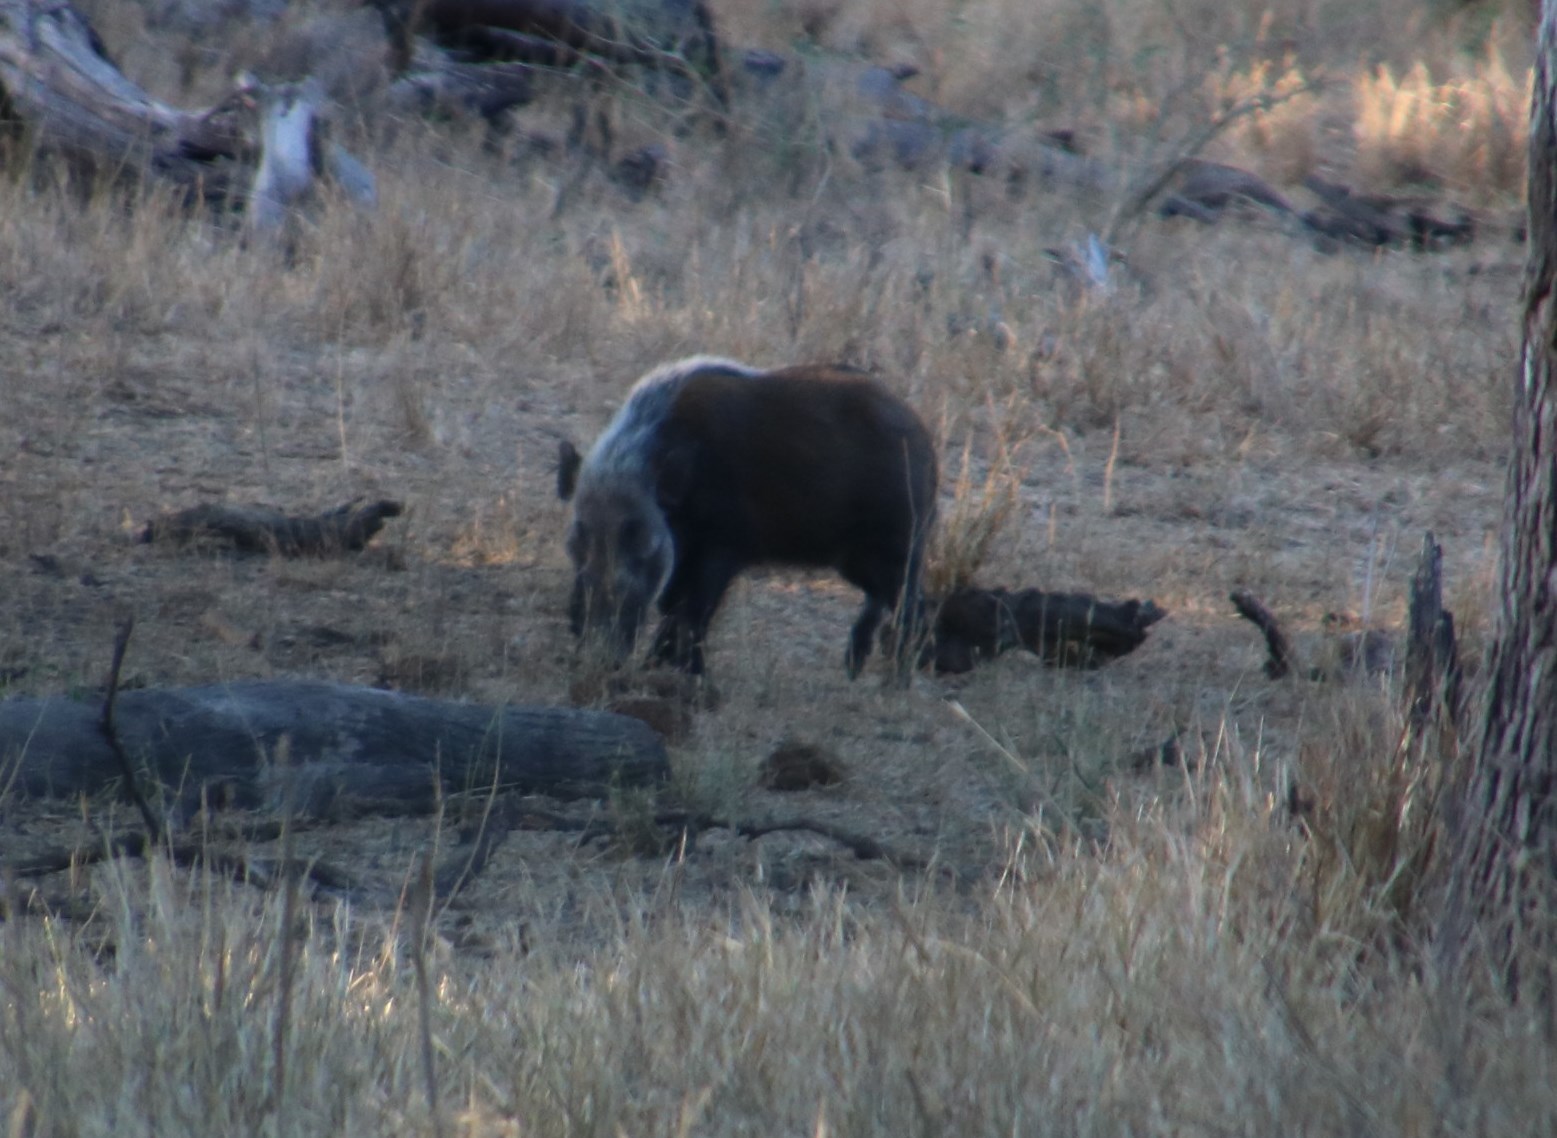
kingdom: Animalia
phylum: Chordata
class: Mammalia
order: Artiodactyla
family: Suidae
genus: Potamochoerus
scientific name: Potamochoerus larvatus
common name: Bushpig
